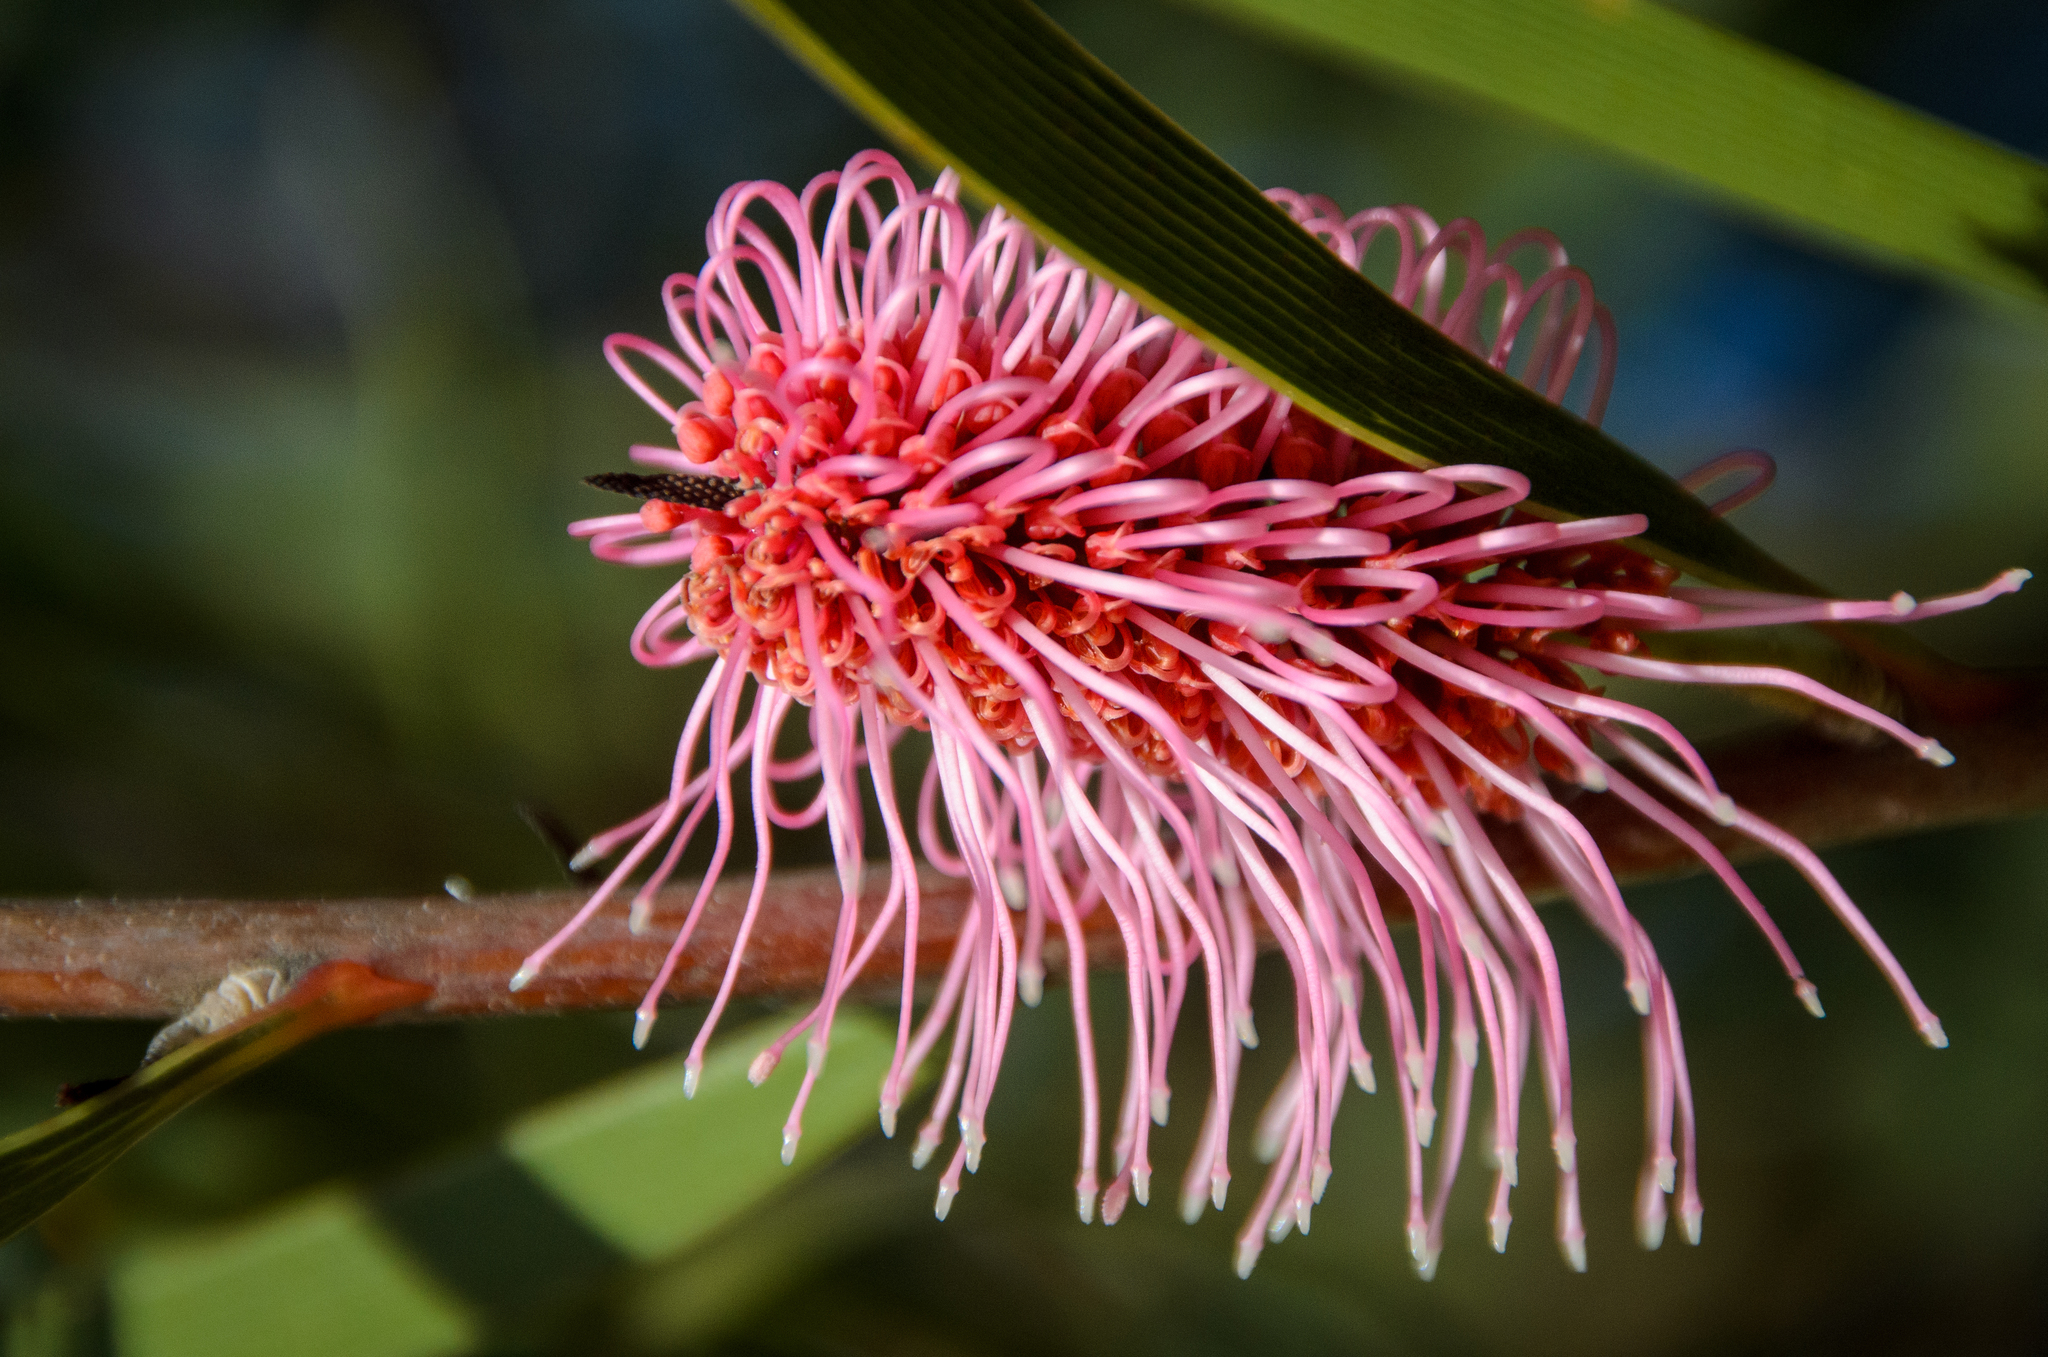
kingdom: Plantae
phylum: Tracheophyta
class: Magnoliopsida
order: Proteales
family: Proteaceae
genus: Hakea
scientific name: Hakea francisiana
